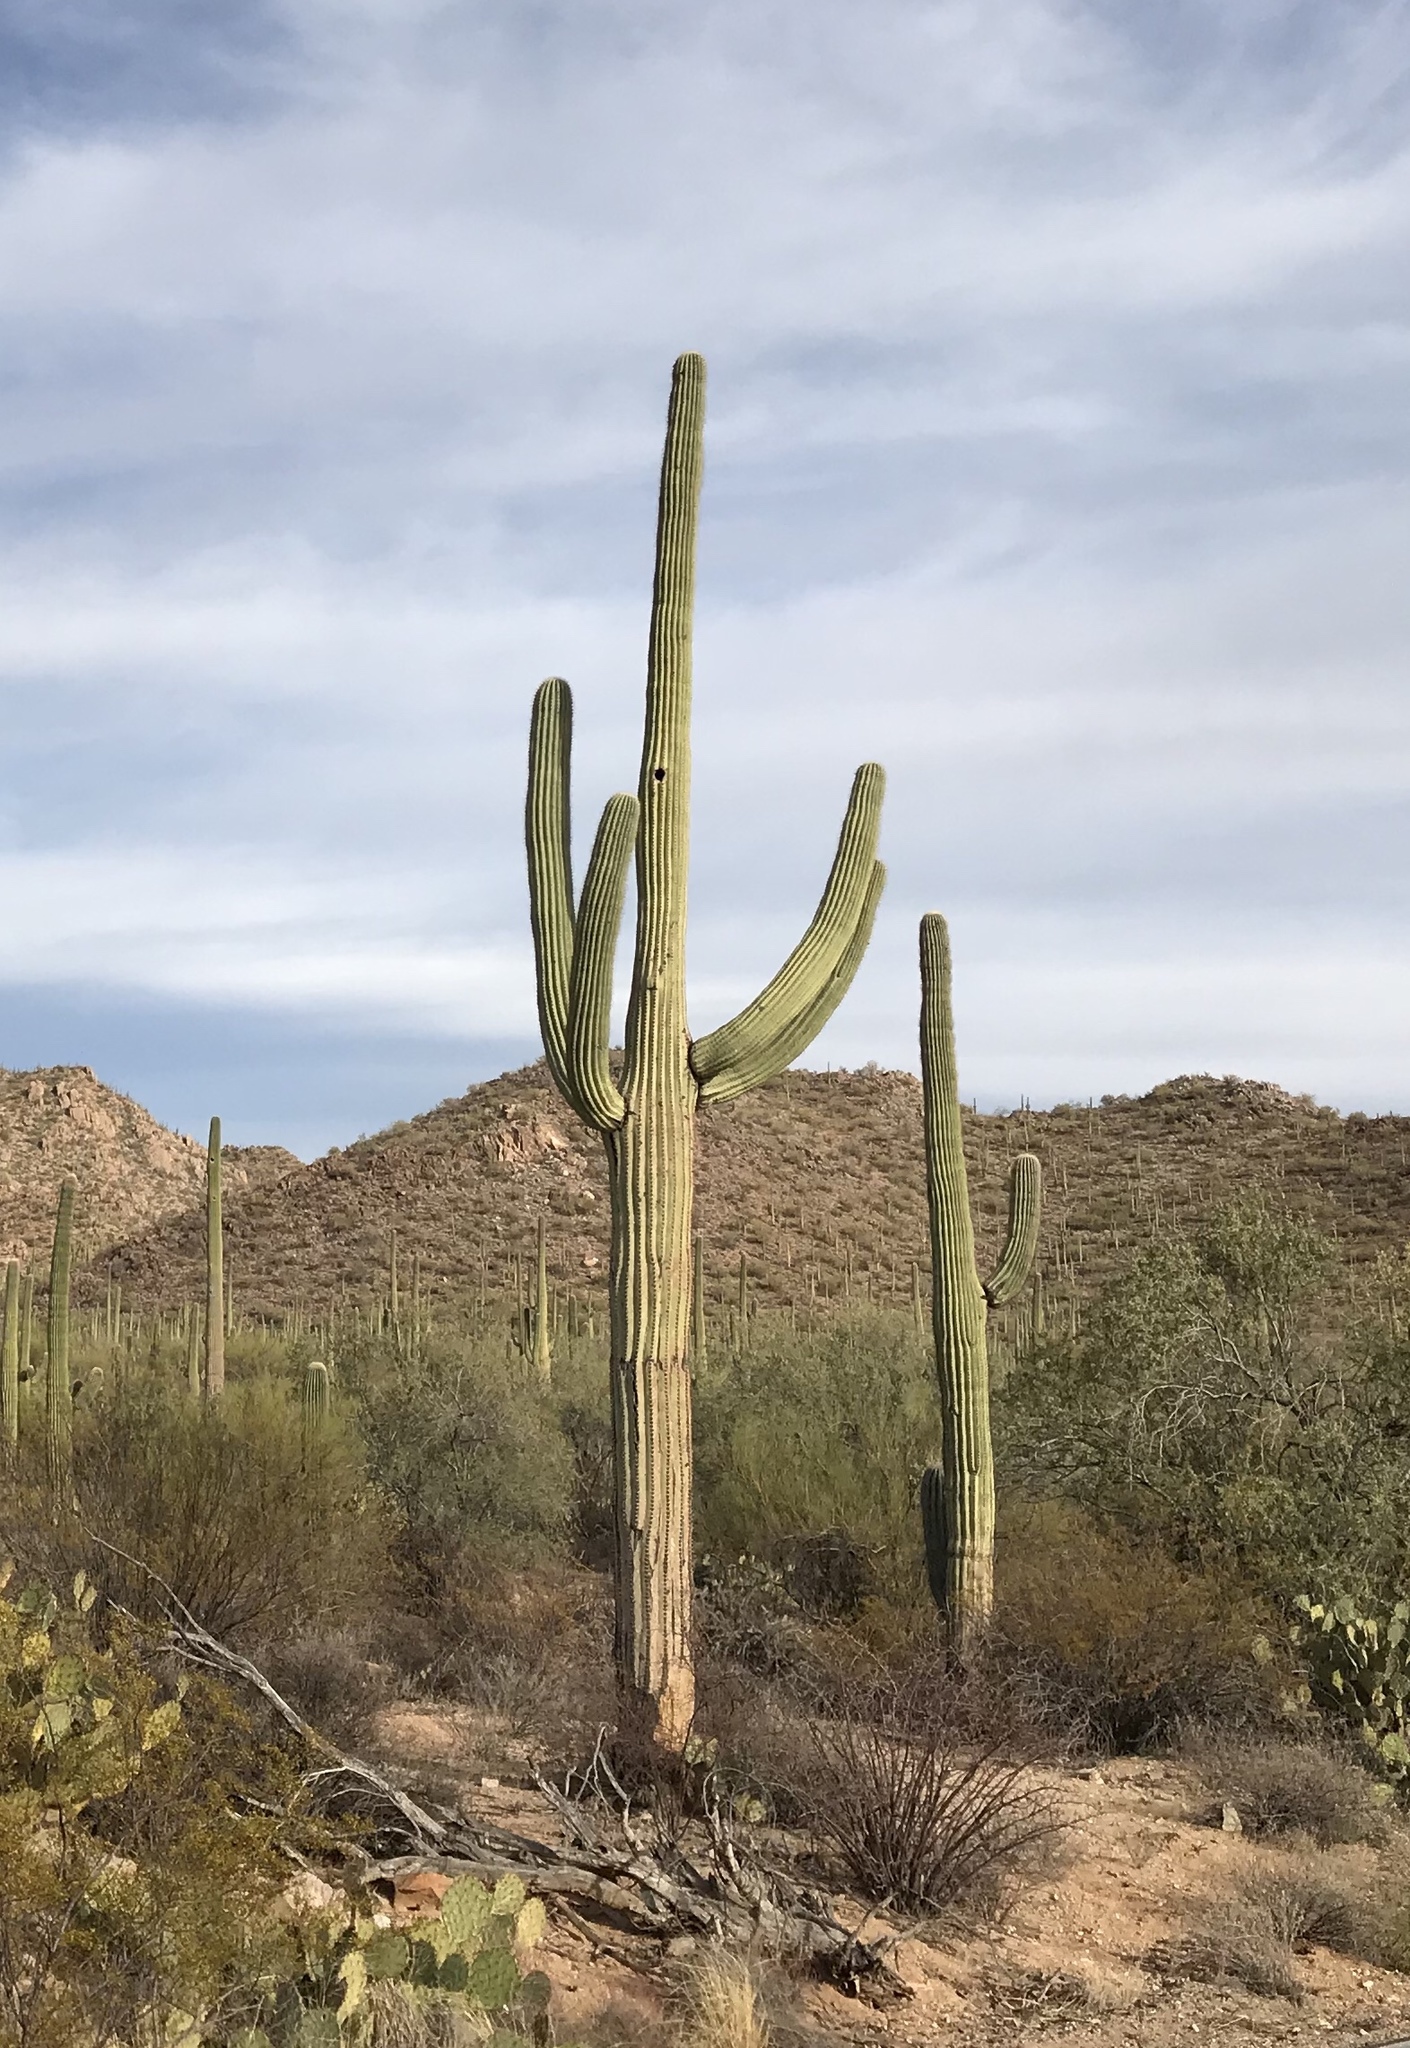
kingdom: Plantae
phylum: Tracheophyta
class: Magnoliopsida
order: Caryophyllales
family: Cactaceae
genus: Carnegiea
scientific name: Carnegiea gigantea
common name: Saguaro
